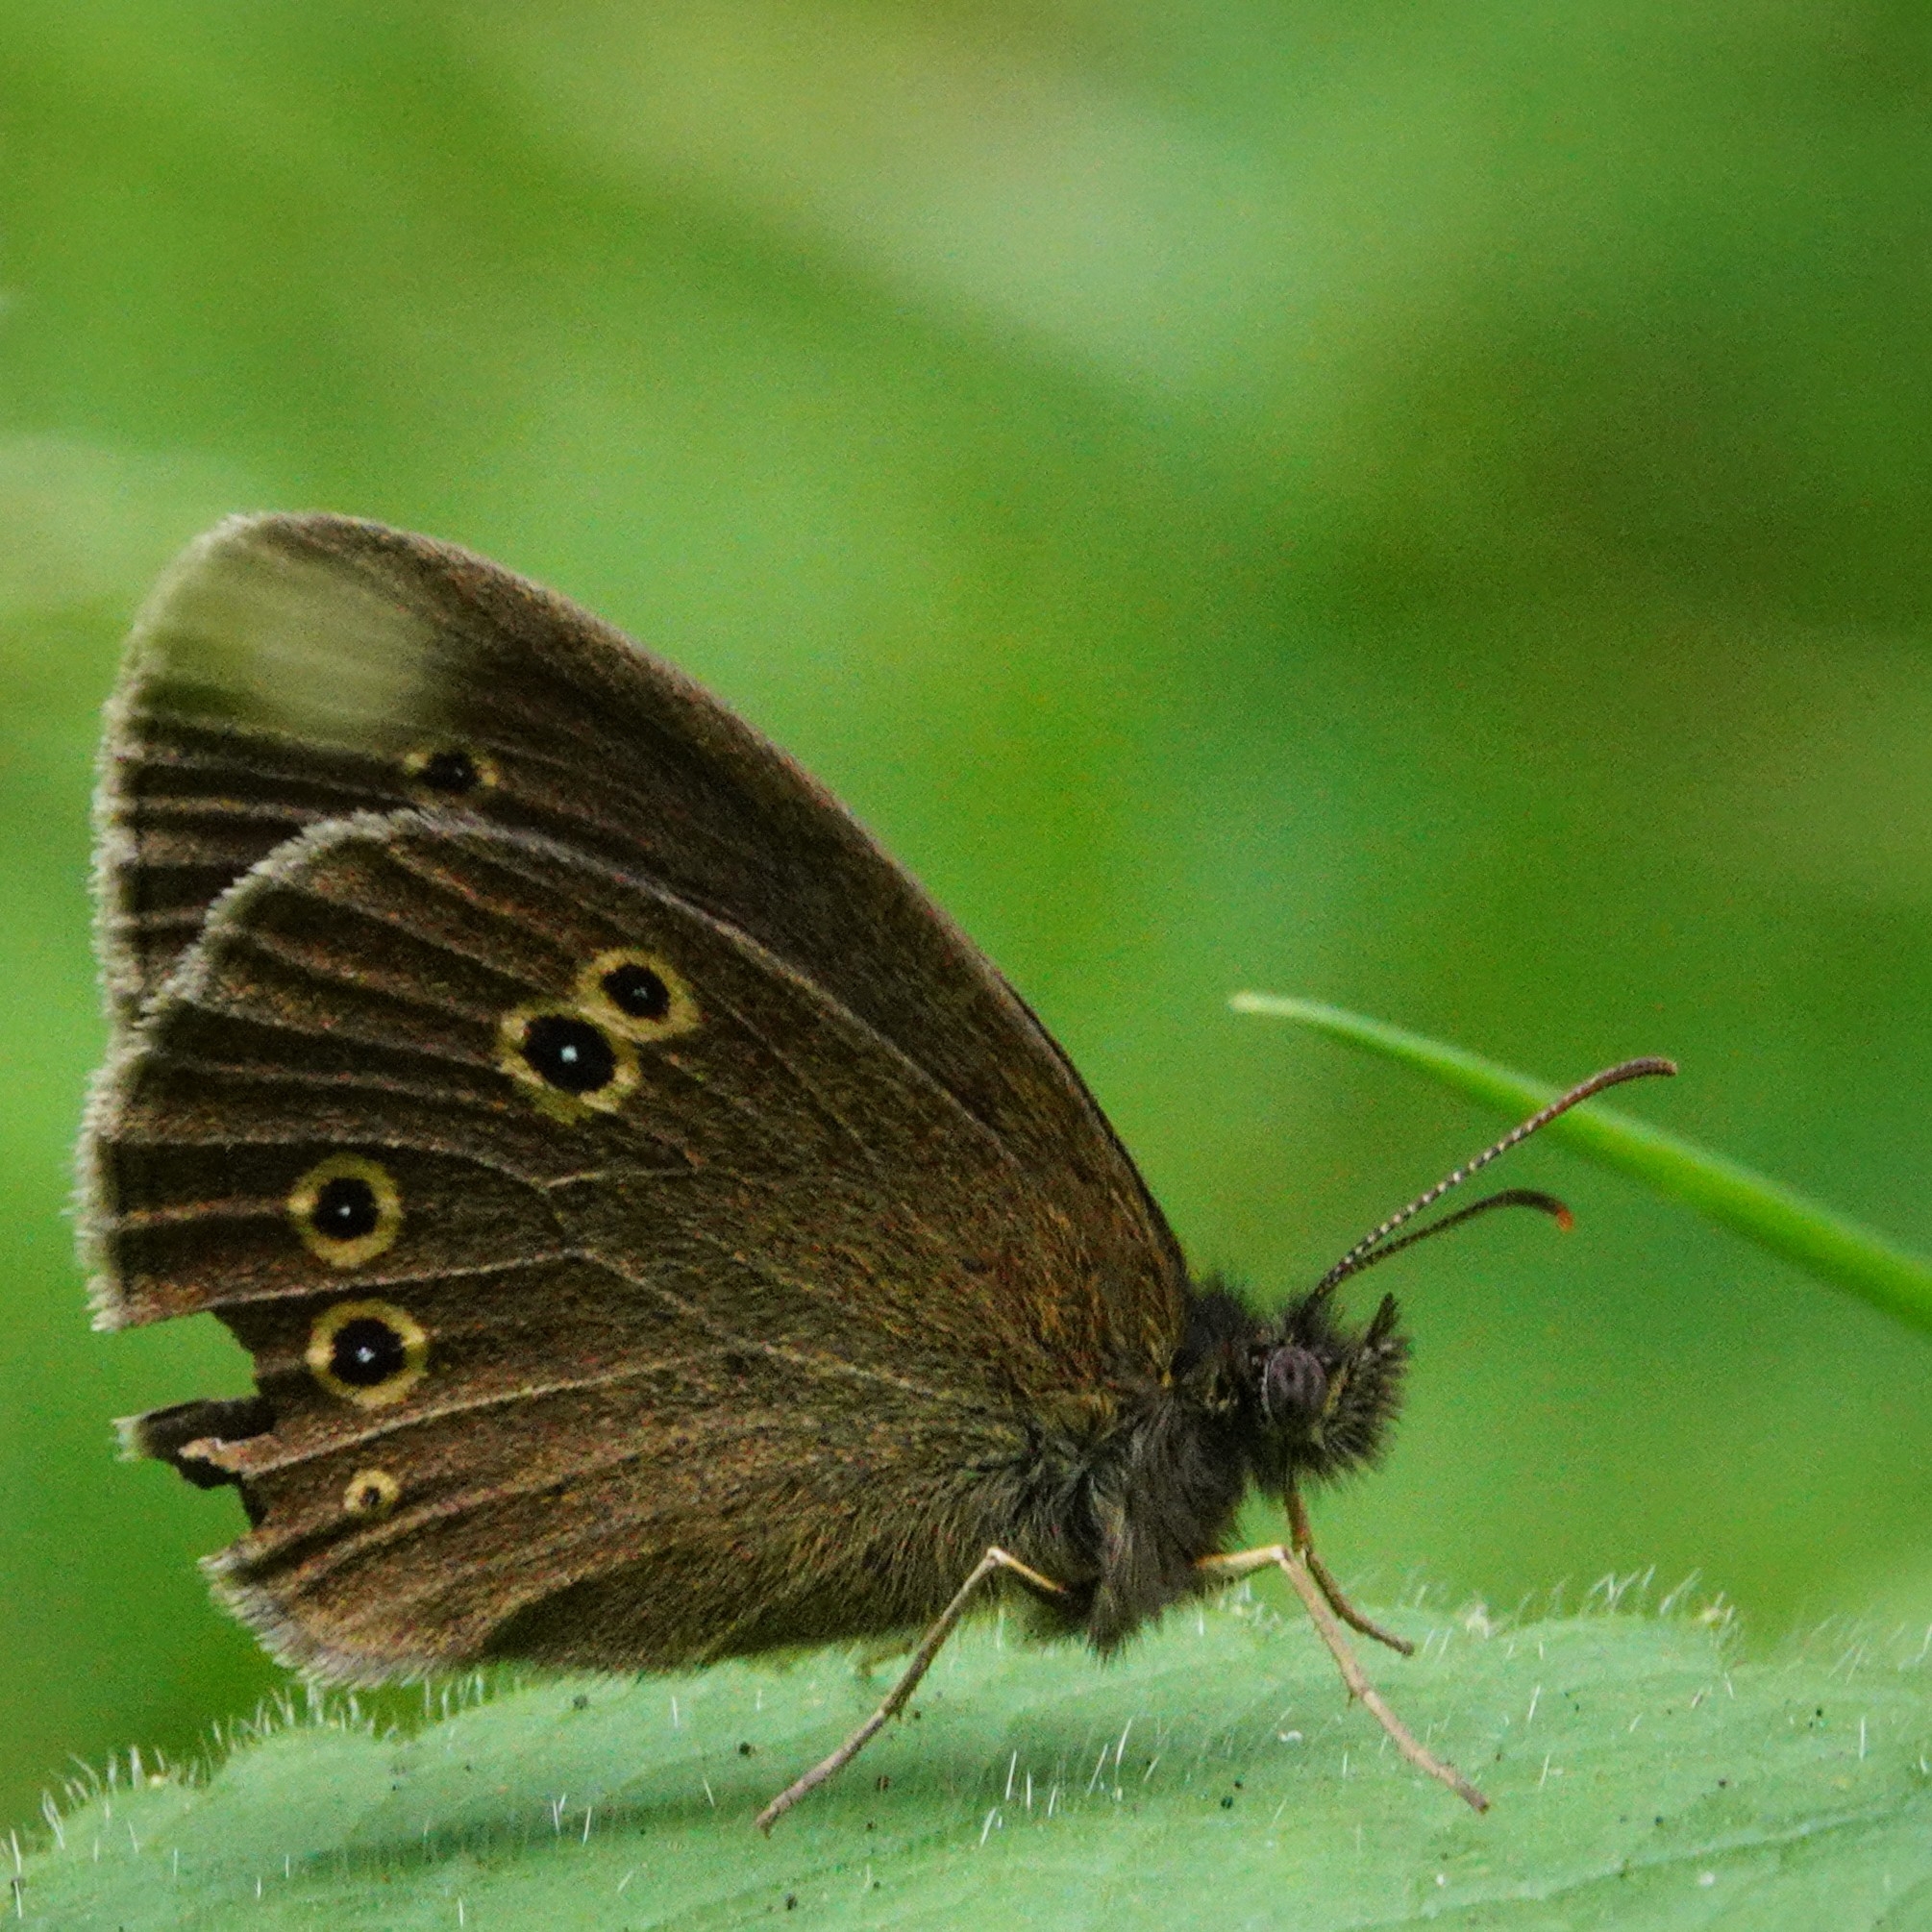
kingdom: Animalia
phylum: Arthropoda
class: Insecta
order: Lepidoptera
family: Nymphalidae
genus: Aphantopus
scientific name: Aphantopus hyperantus
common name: Ringlet
